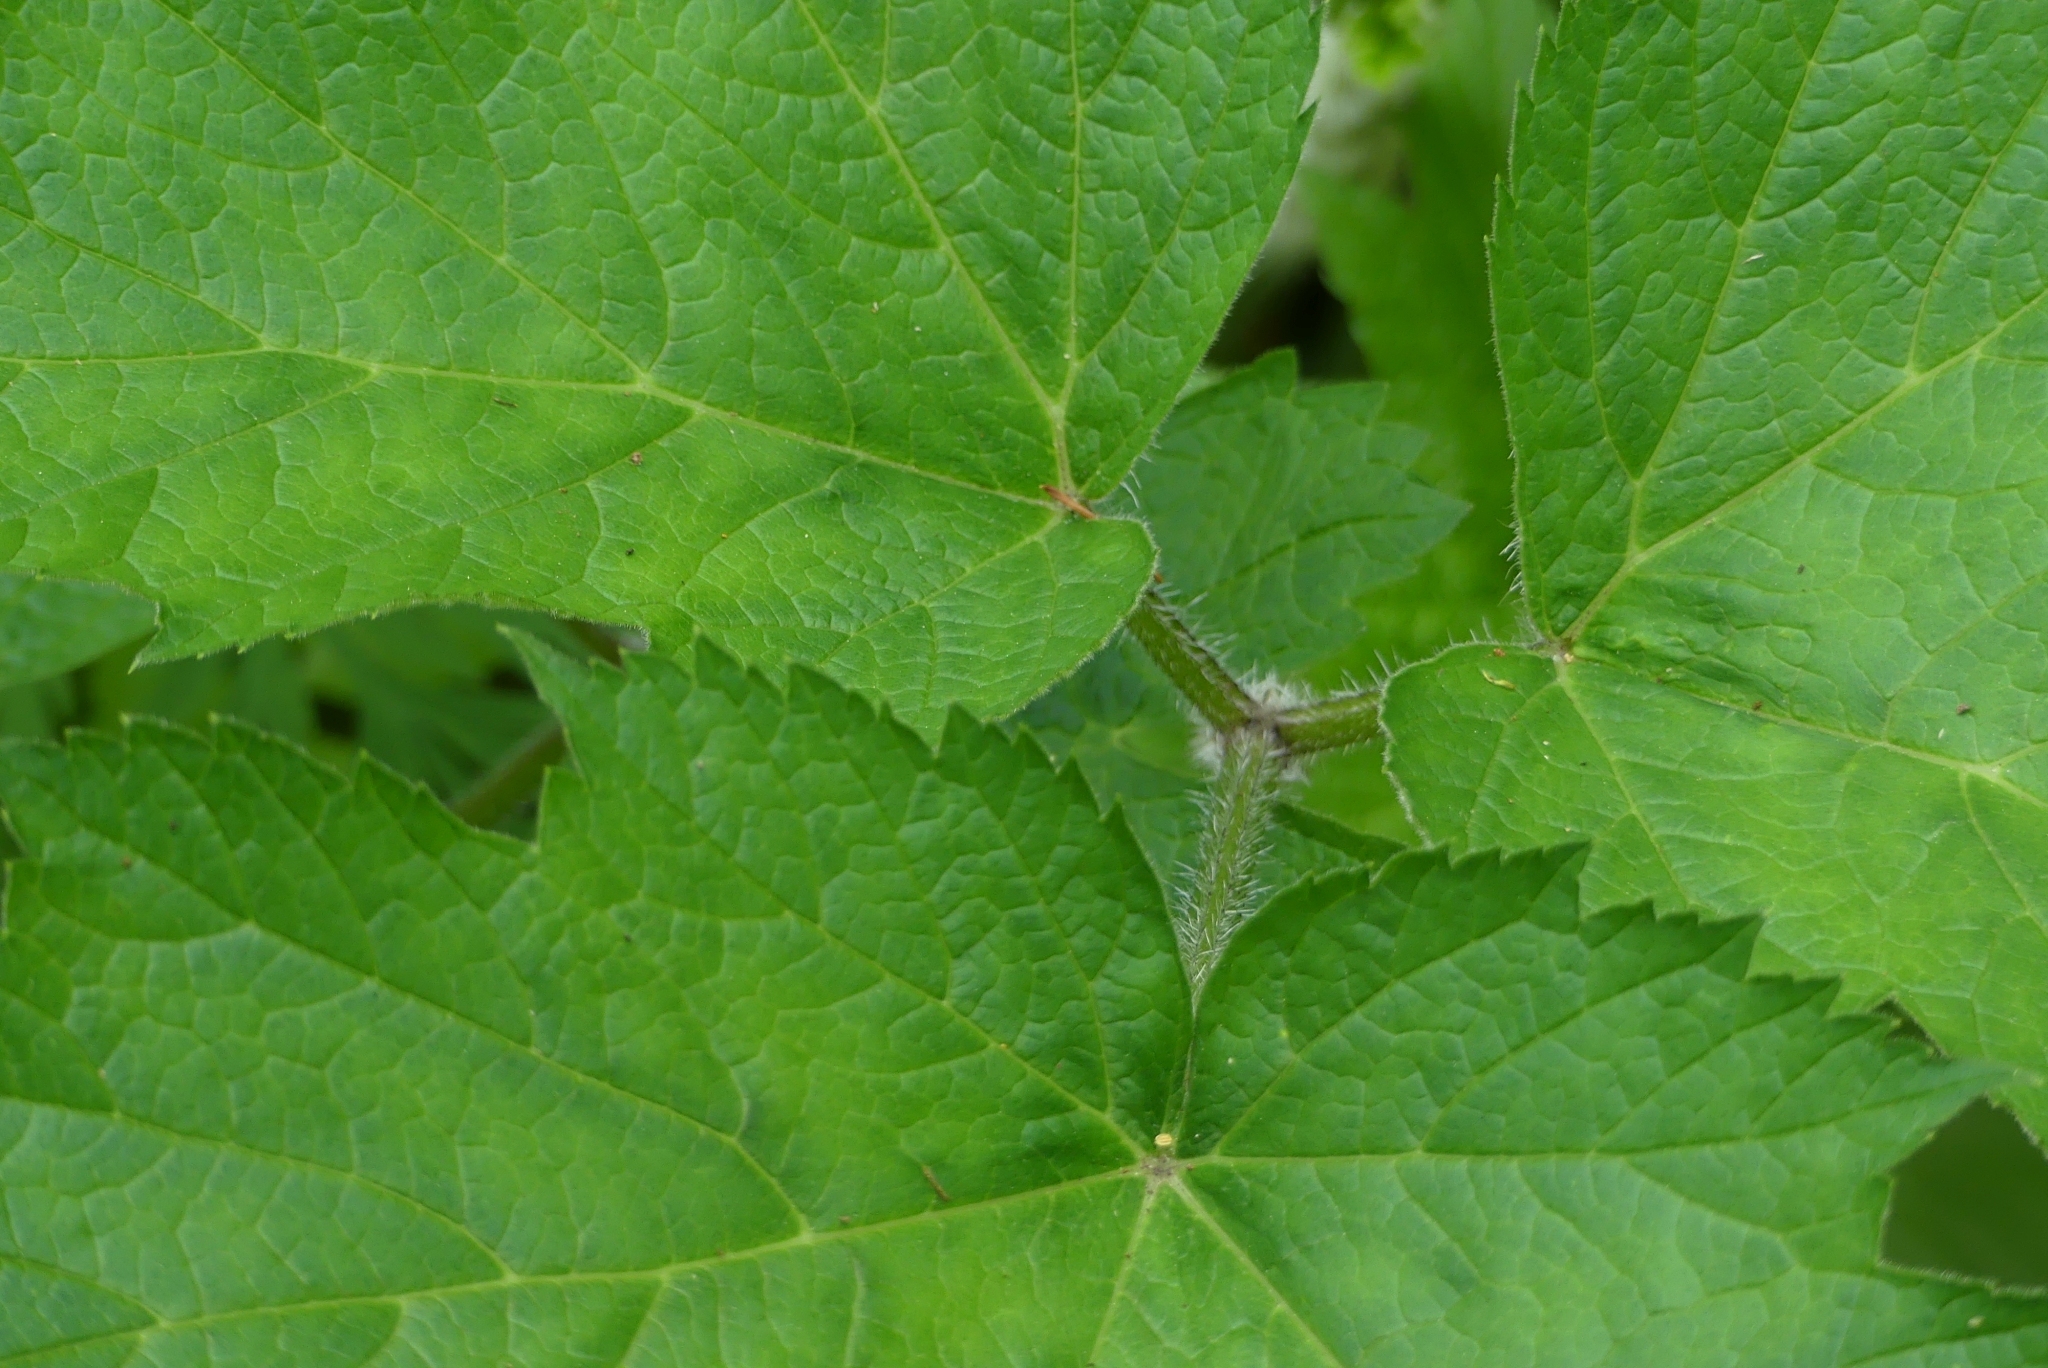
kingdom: Plantae
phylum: Tracheophyta
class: Magnoliopsida
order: Apiales
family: Apiaceae
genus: Heracleum
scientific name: Heracleum maximum
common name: American cow parsnip
